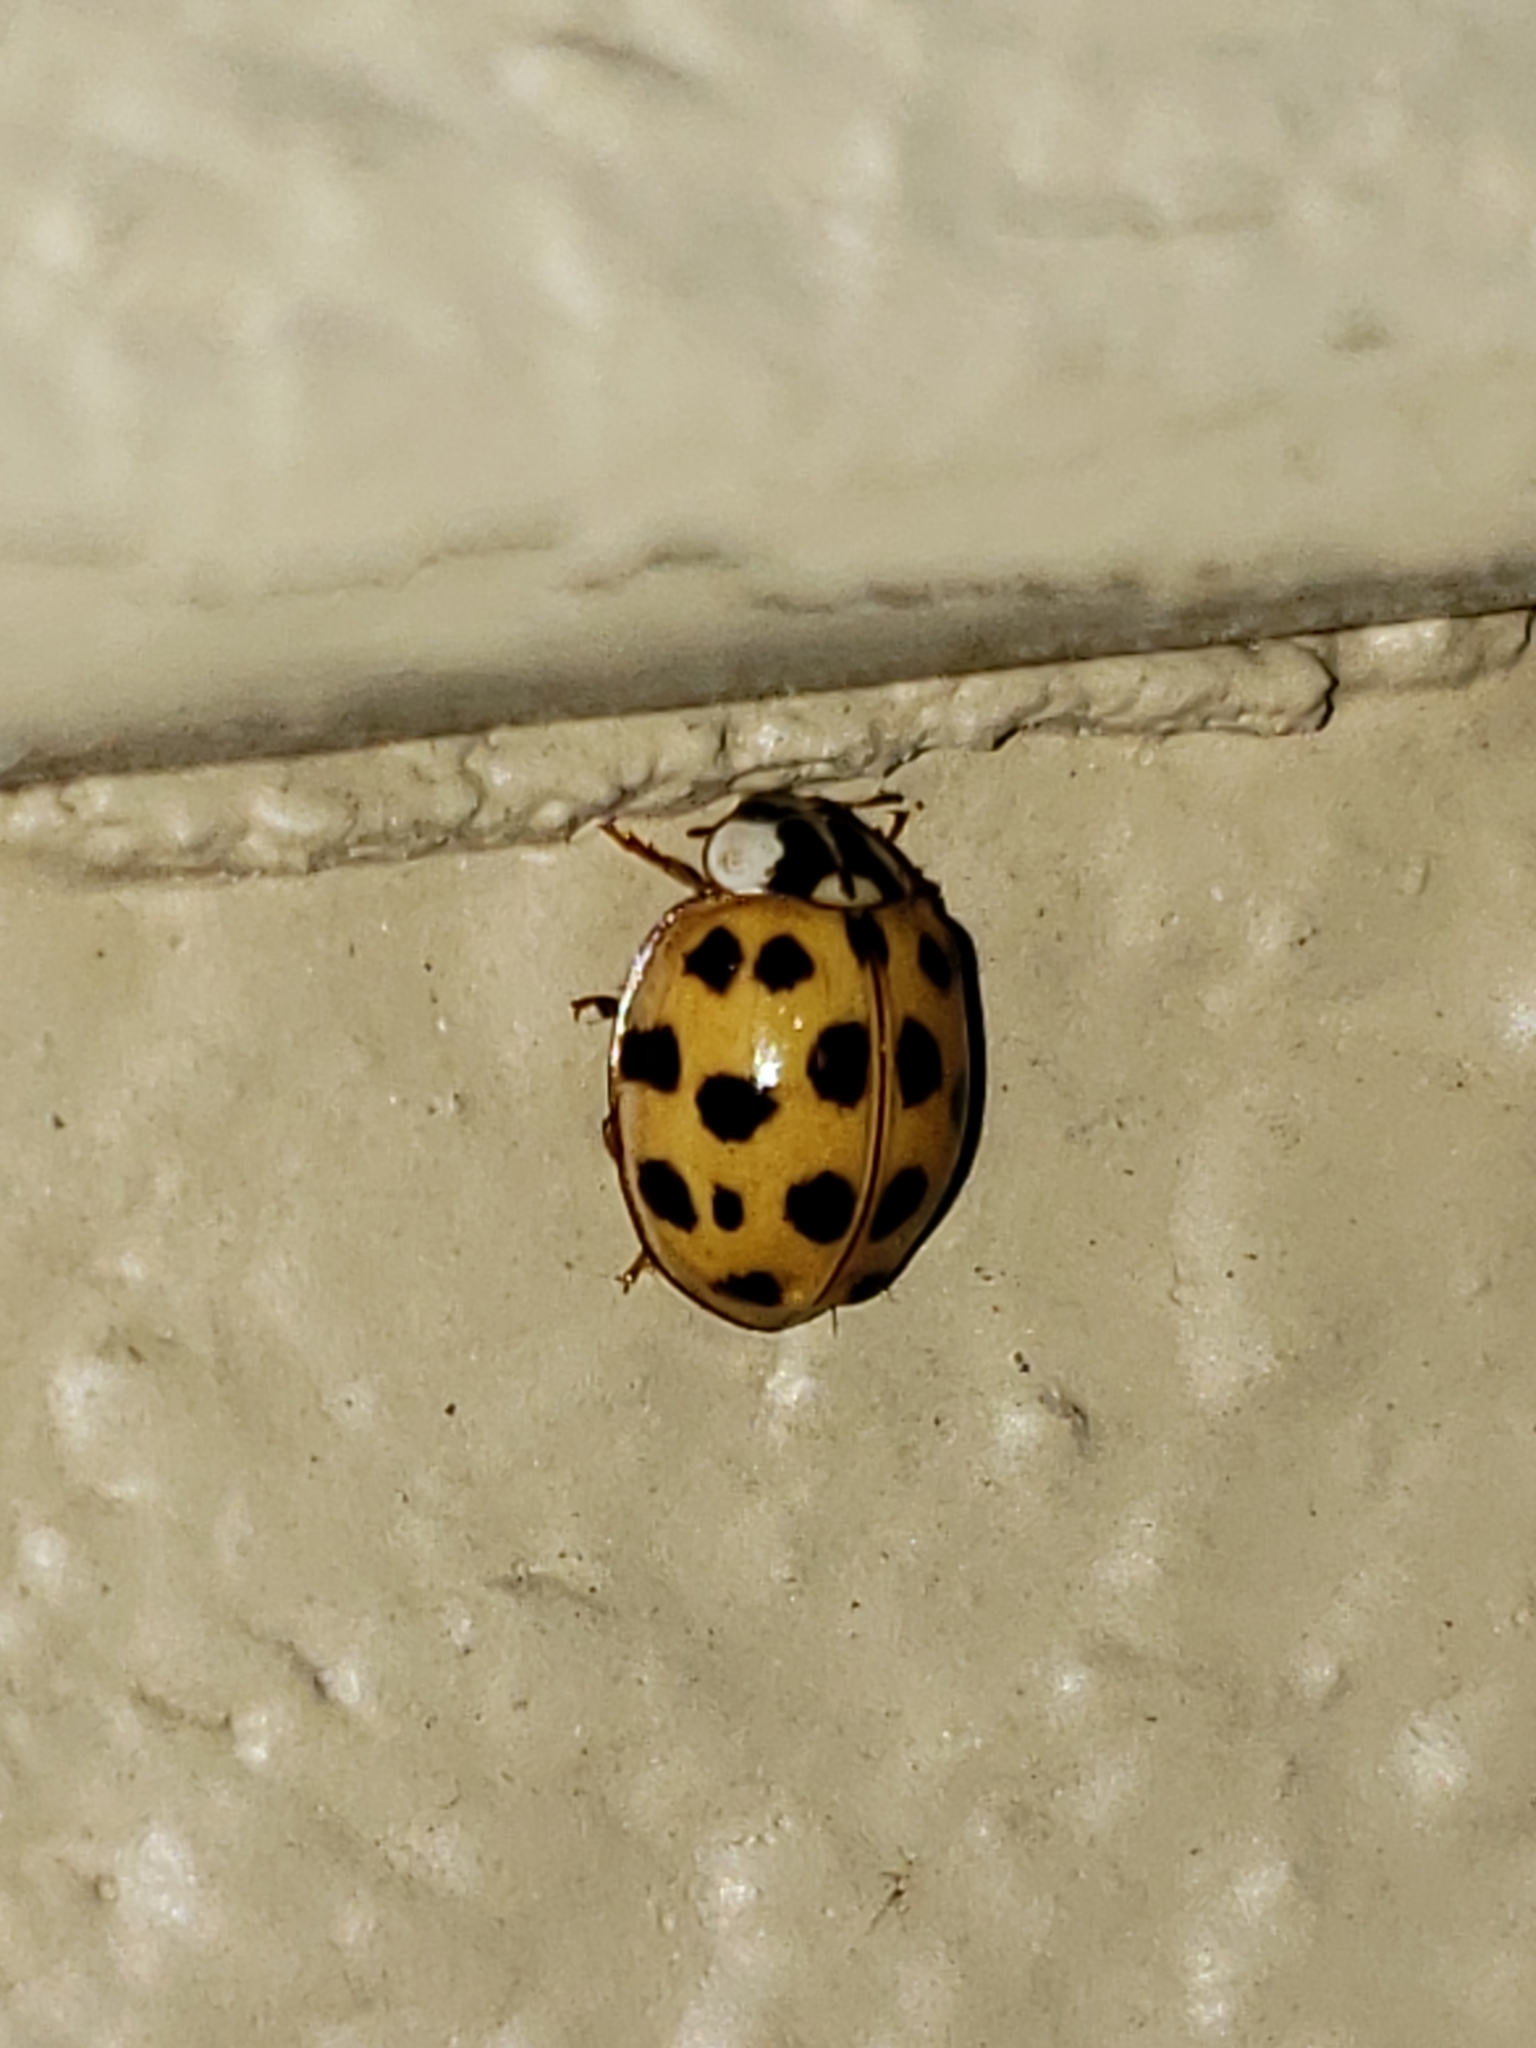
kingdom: Animalia
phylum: Arthropoda
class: Insecta
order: Coleoptera
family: Coccinellidae
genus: Harmonia
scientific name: Harmonia axyridis
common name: Harlequin ladybird
